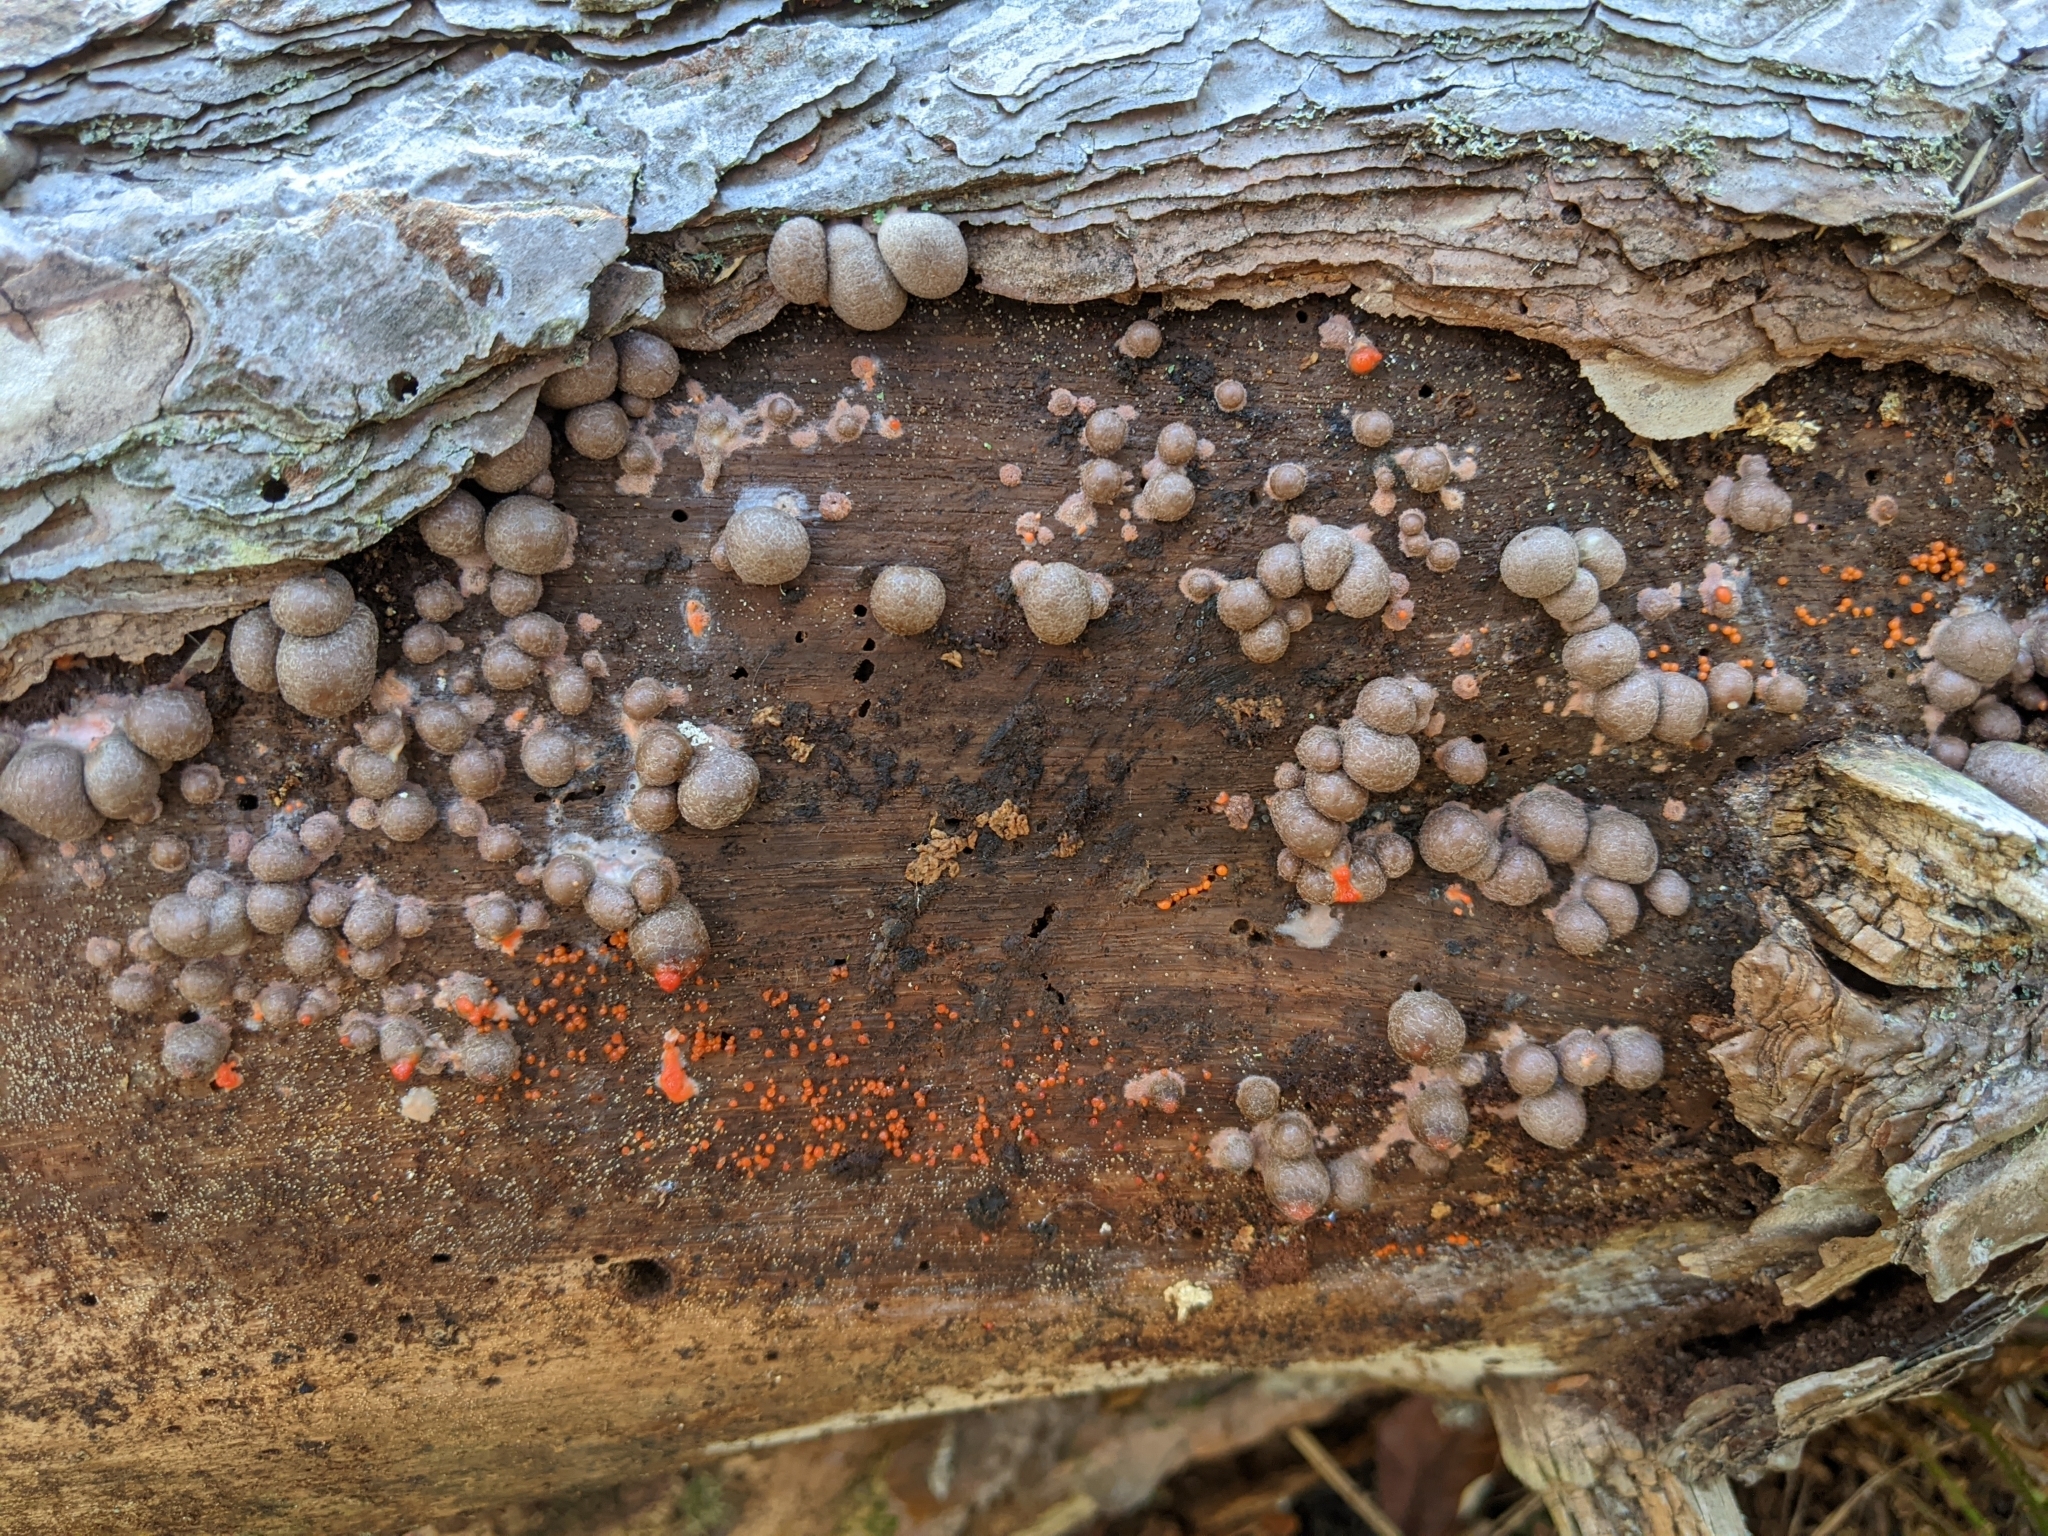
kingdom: Protozoa
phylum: Mycetozoa
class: Myxomycetes
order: Cribrariales
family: Tubiferaceae
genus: Lycogala
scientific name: Lycogala epidendrum
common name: Wolf's milk
